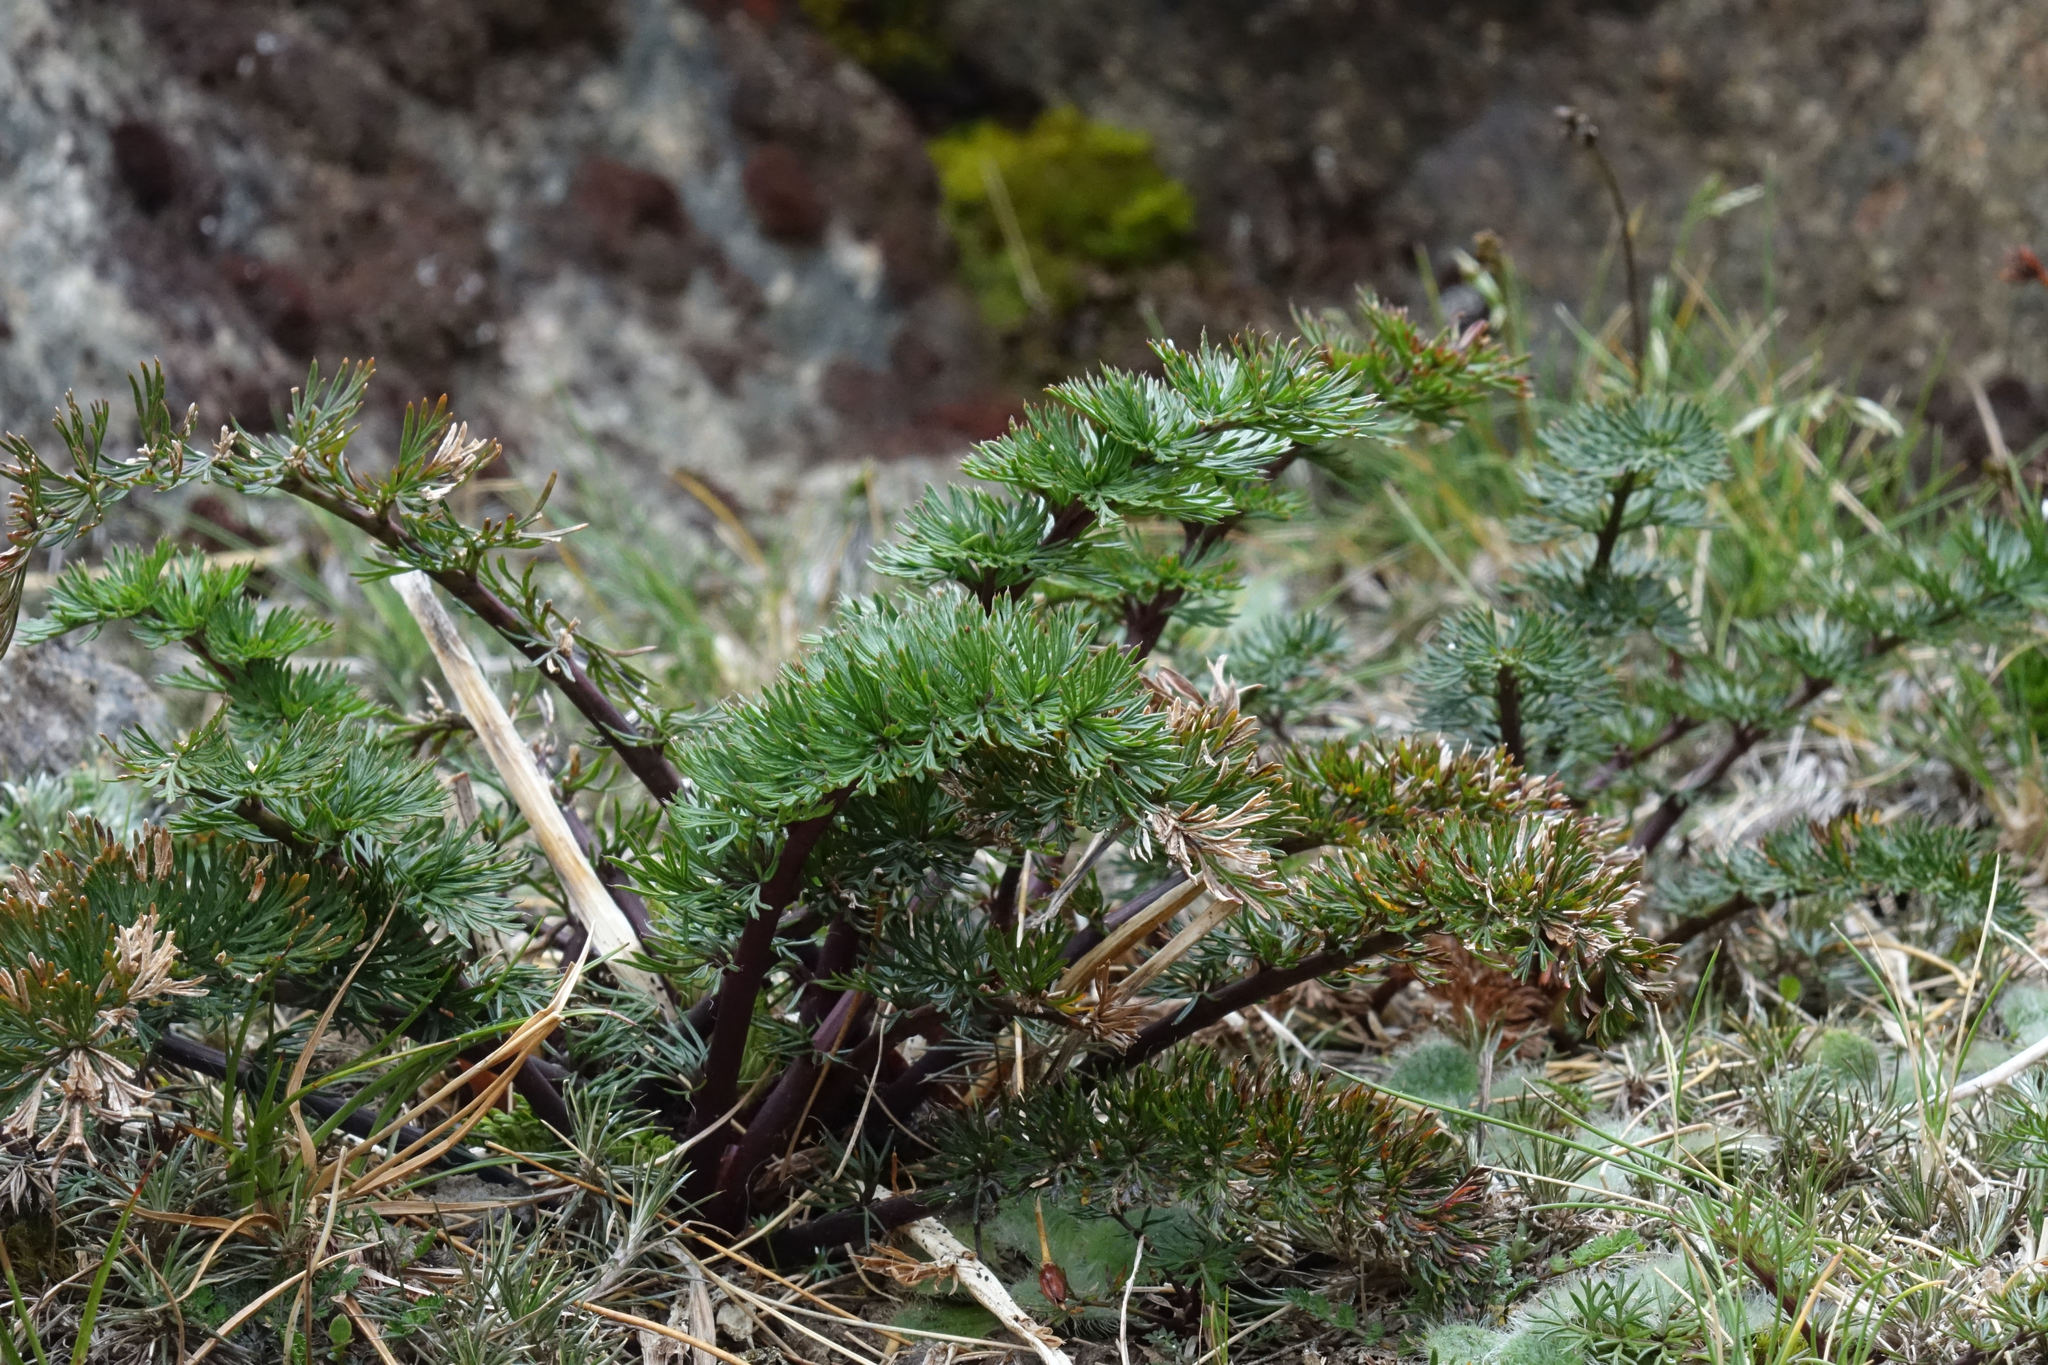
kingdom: Plantae
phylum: Tracheophyta
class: Magnoliopsida
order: Apiales
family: Apiaceae
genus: Anisotome
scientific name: Anisotome haastii
